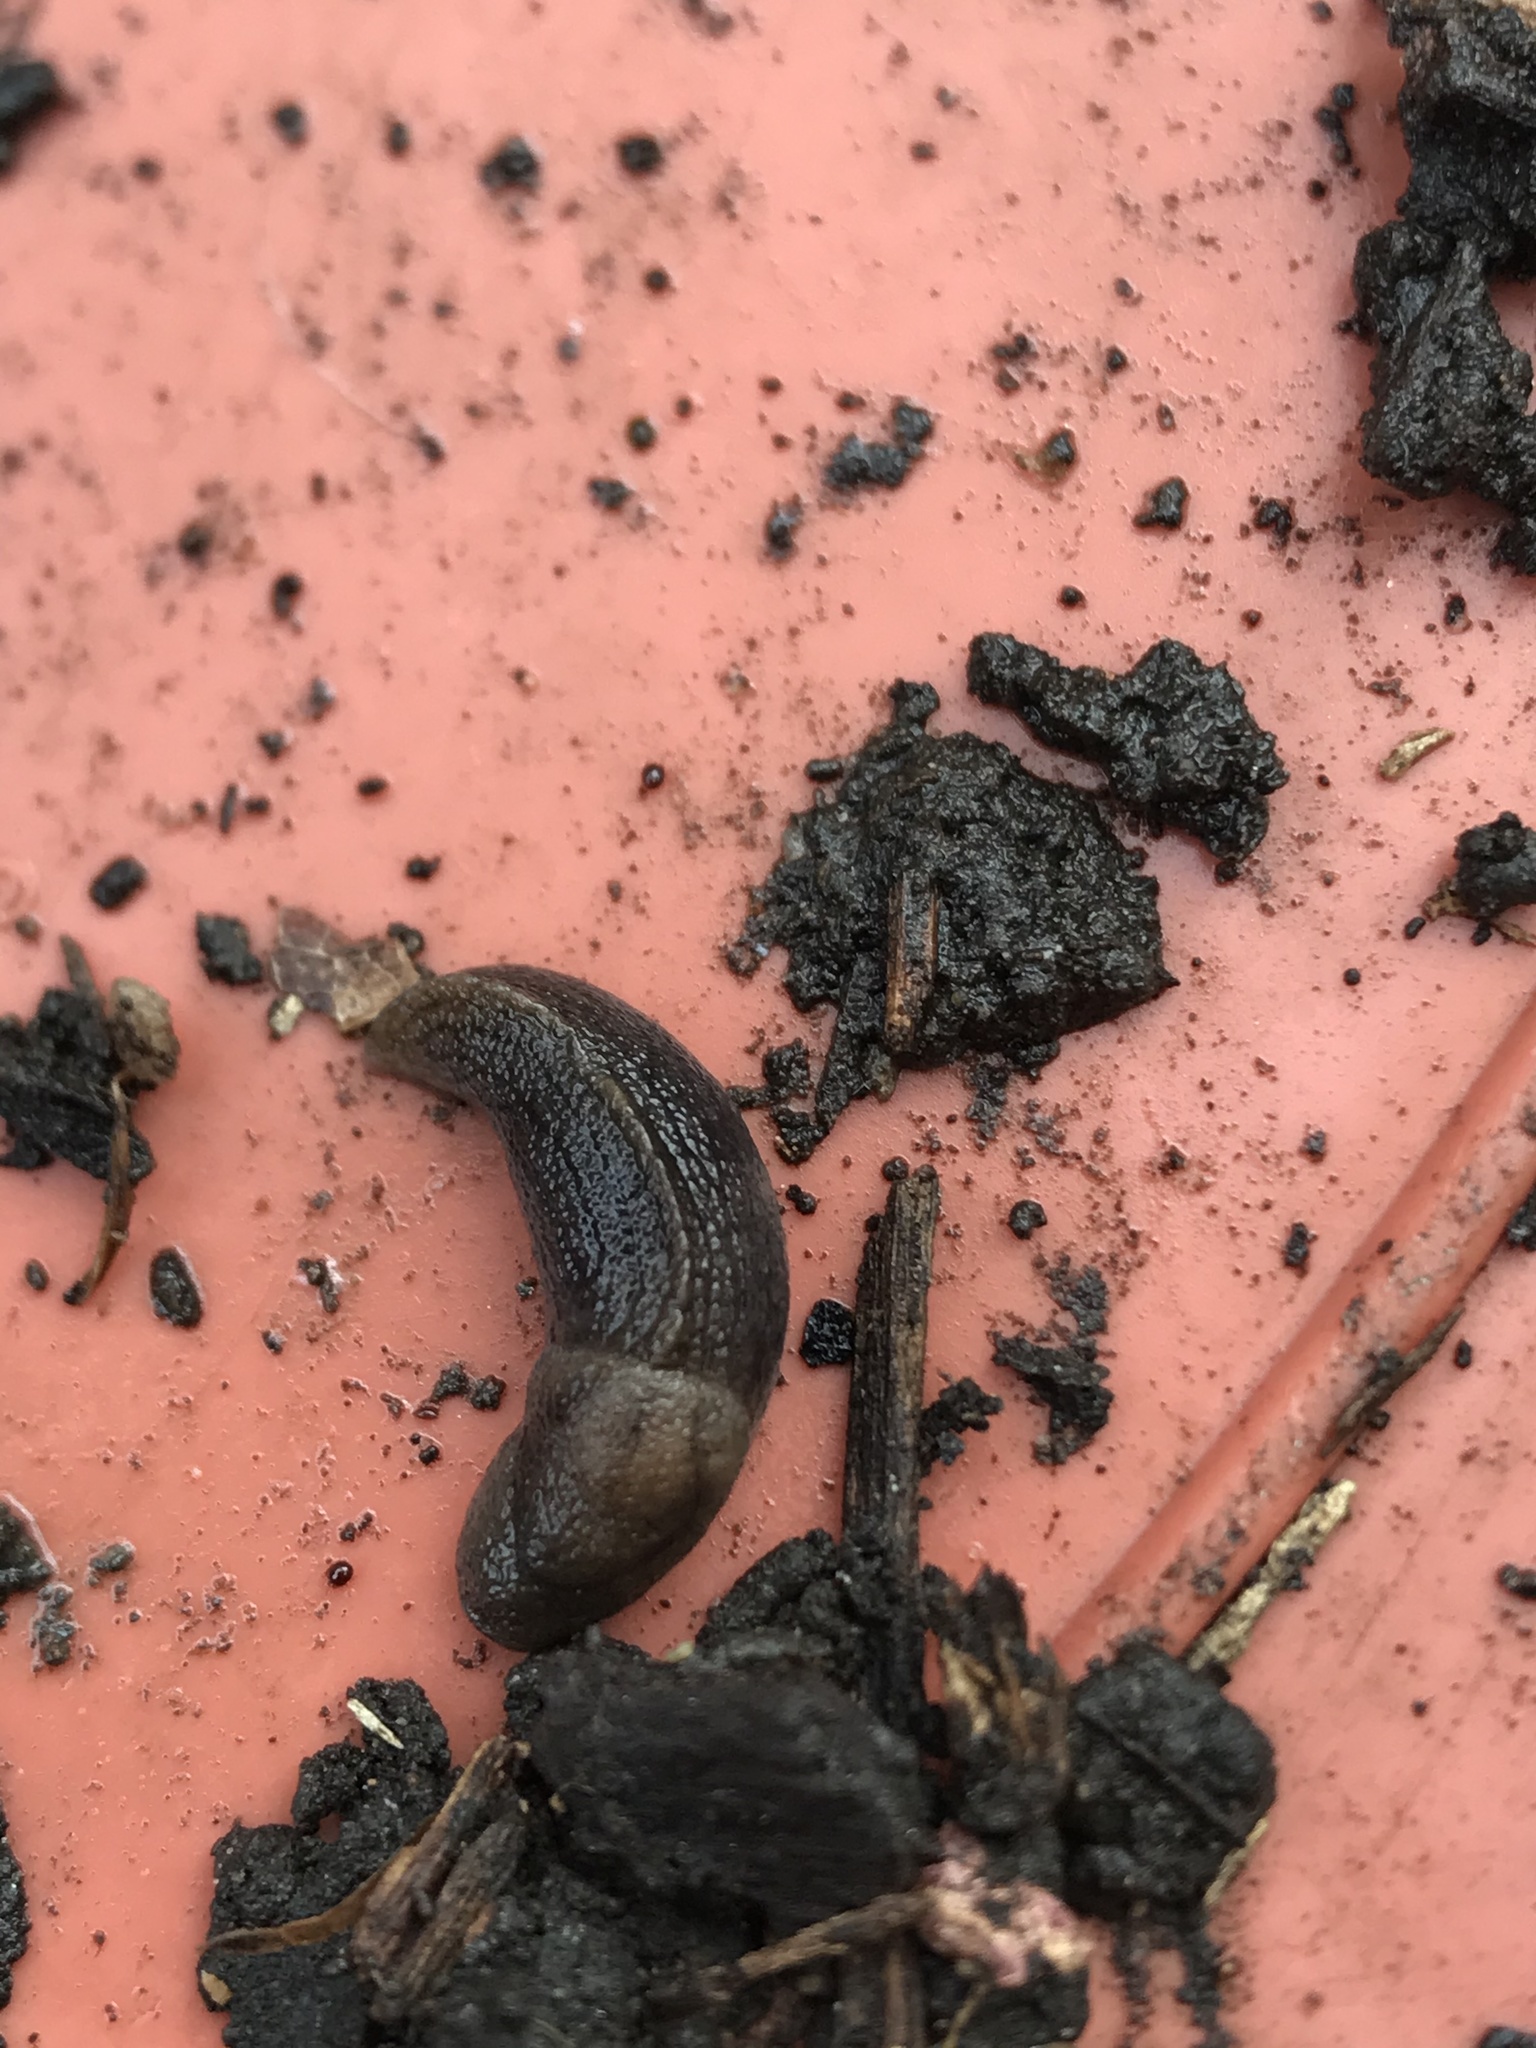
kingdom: Animalia
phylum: Mollusca
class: Gastropoda
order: Stylommatophora
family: Milacidae
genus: Milax
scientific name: Milax gagates
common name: Greenhouse slug
